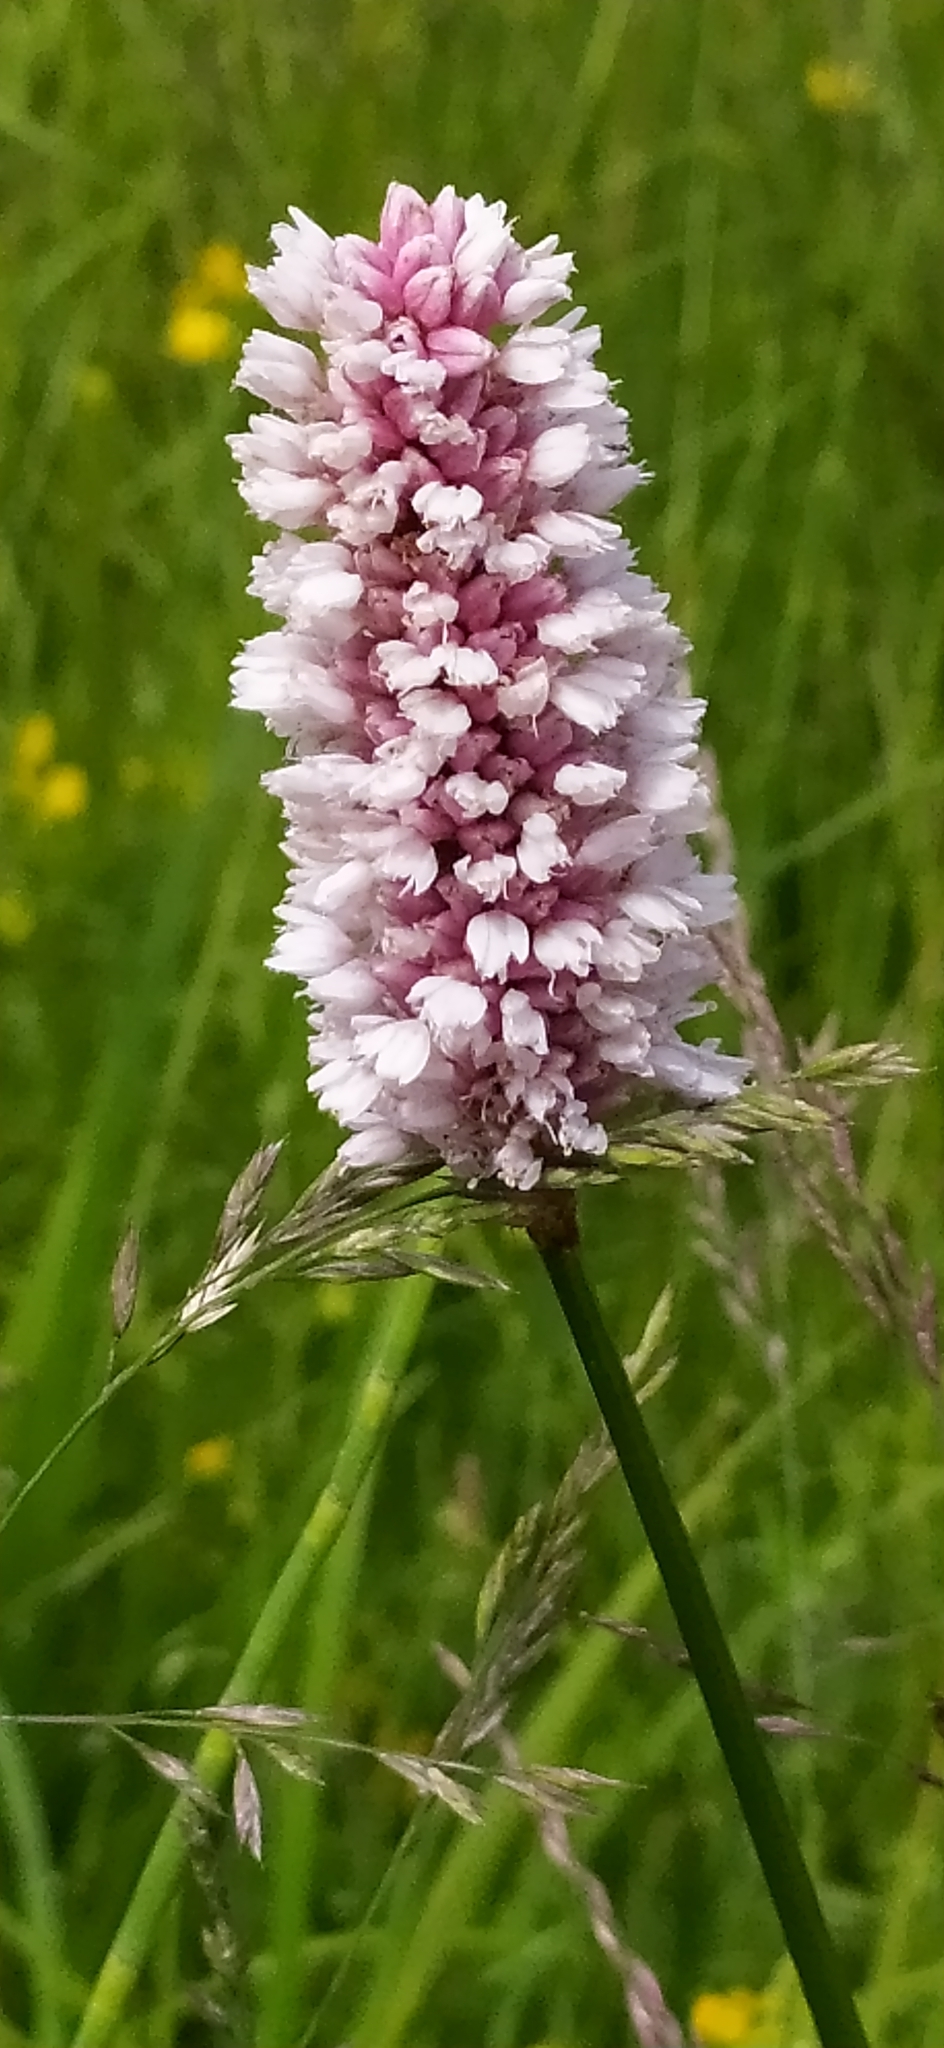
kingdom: Plantae
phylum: Tracheophyta
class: Magnoliopsida
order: Caryophyllales
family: Polygonaceae
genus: Bistorta
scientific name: Bistorta officinalis
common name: Common bistort
